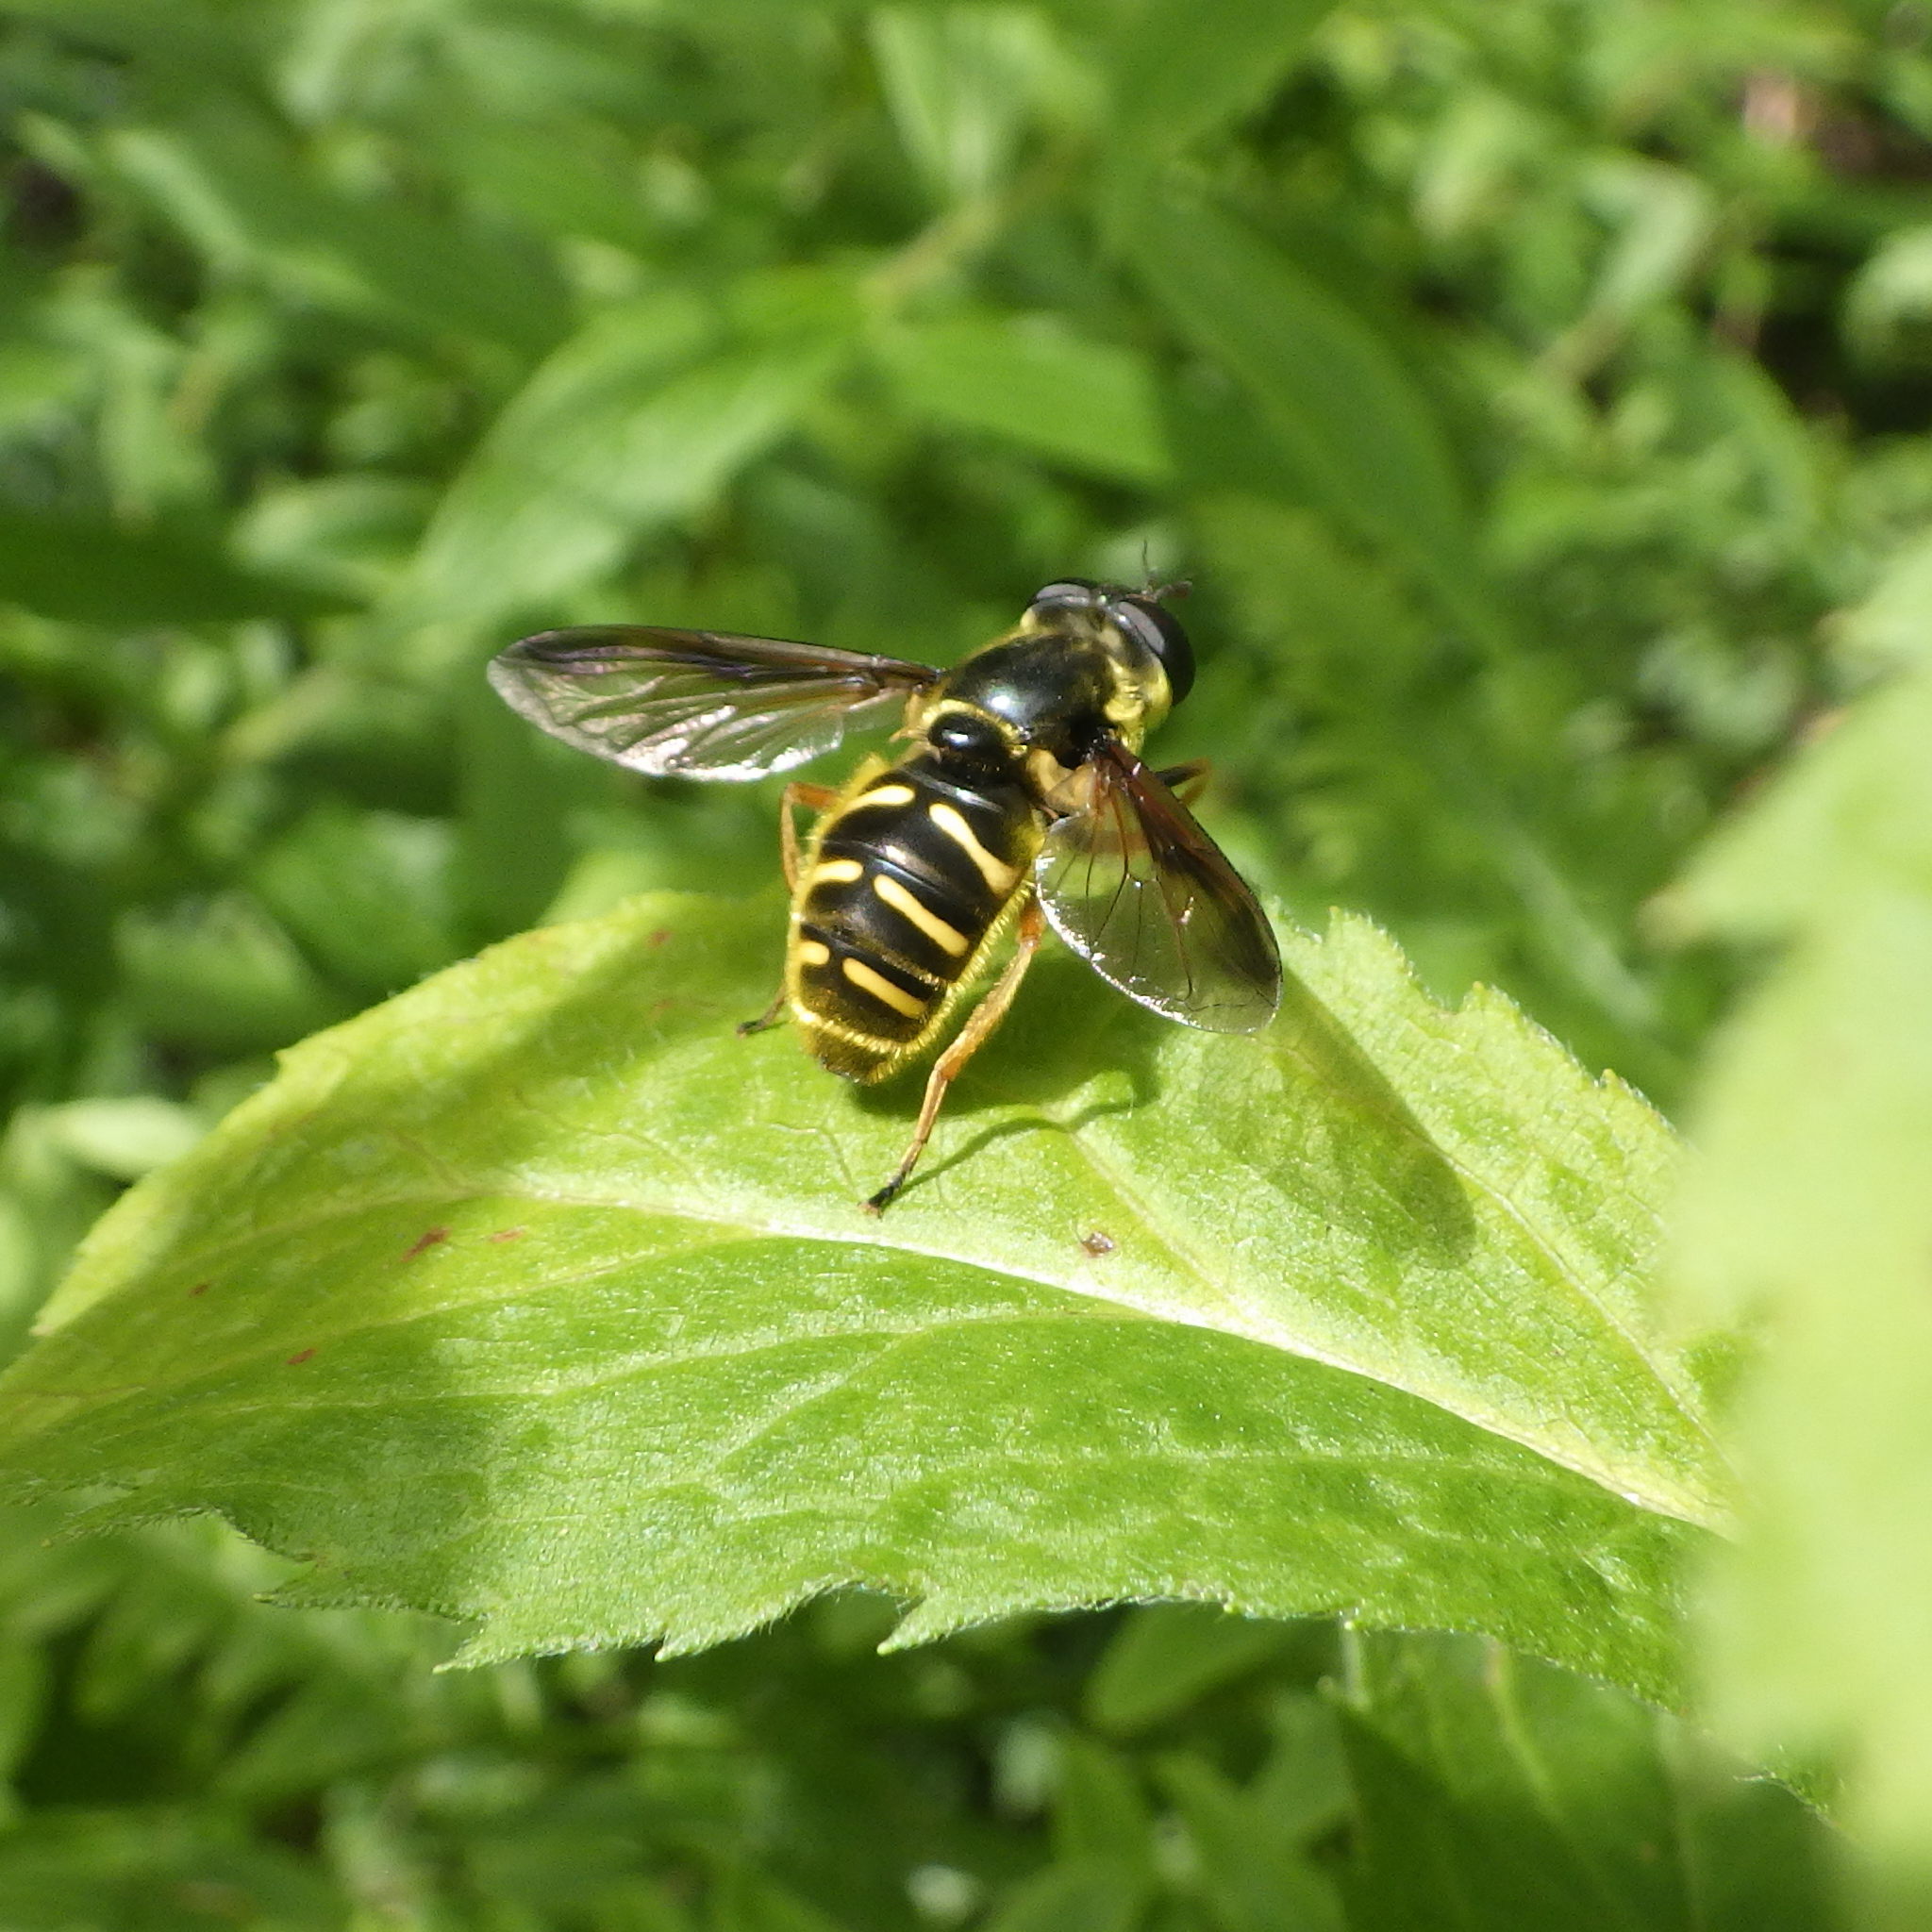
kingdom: Animalia
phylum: Arthropoda
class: Insecta
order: Diptera
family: Syrphidae
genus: Sericomyia
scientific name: Sericomyia chrysotoxoides
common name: Oblique-banded pond fly
